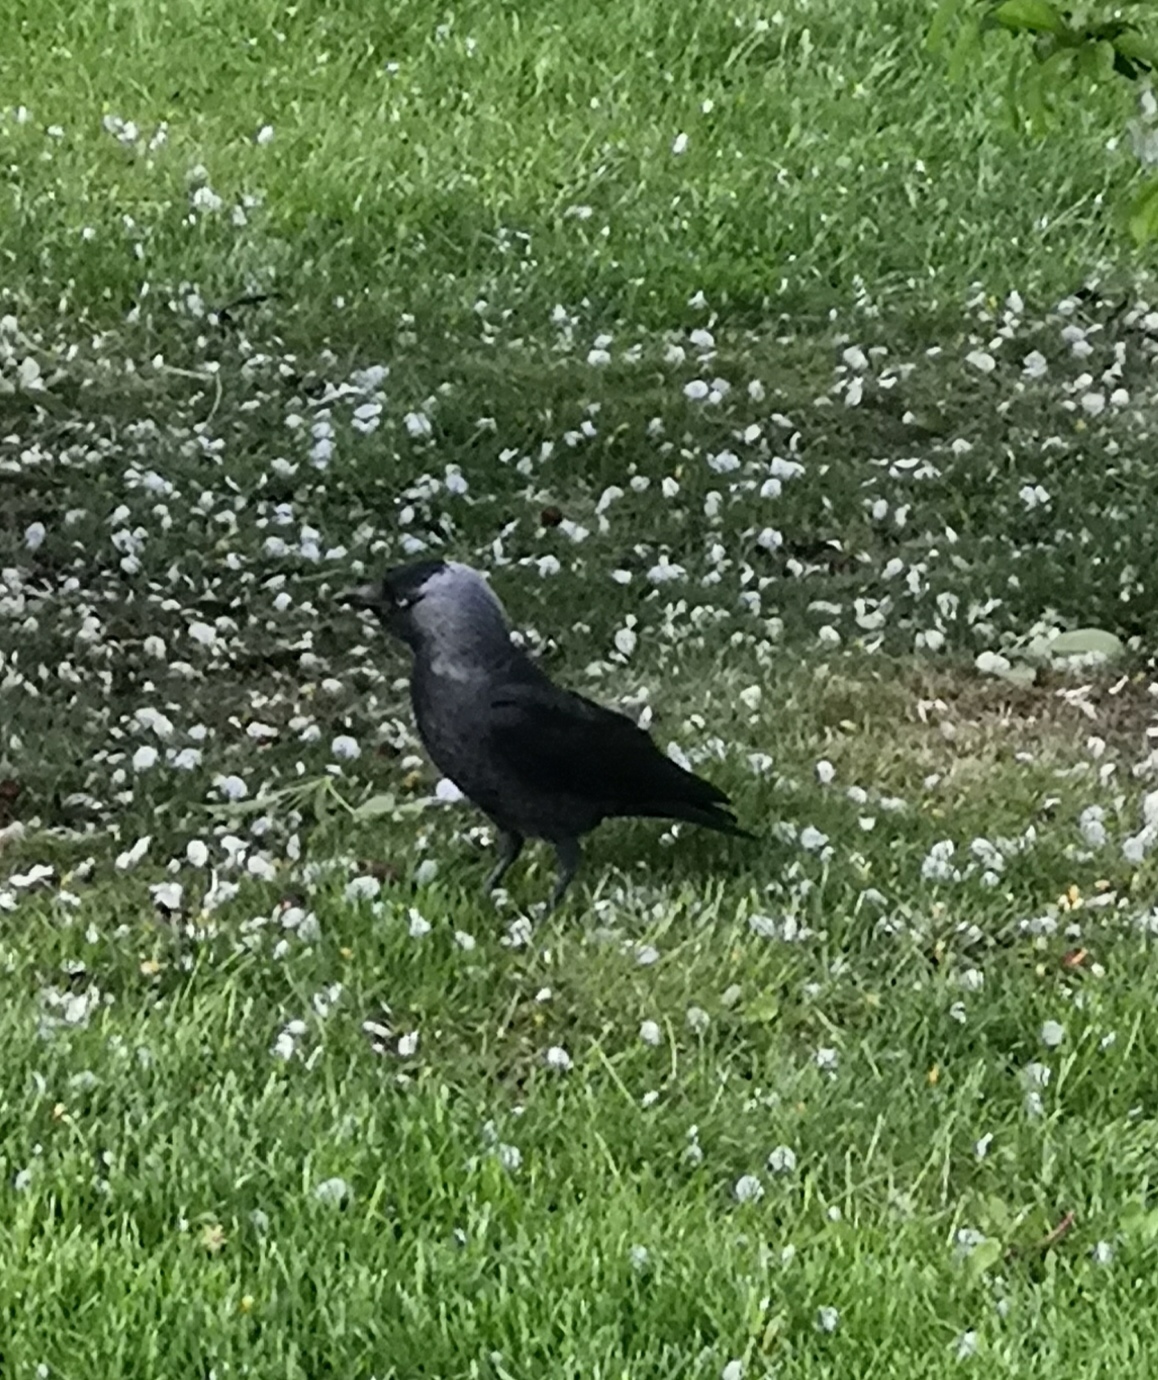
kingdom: Animalia
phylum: Chordata
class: Aves
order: Passeriformes
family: Corvidae
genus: Coloeus
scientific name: Coloeus monedula
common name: Western jackdaw
